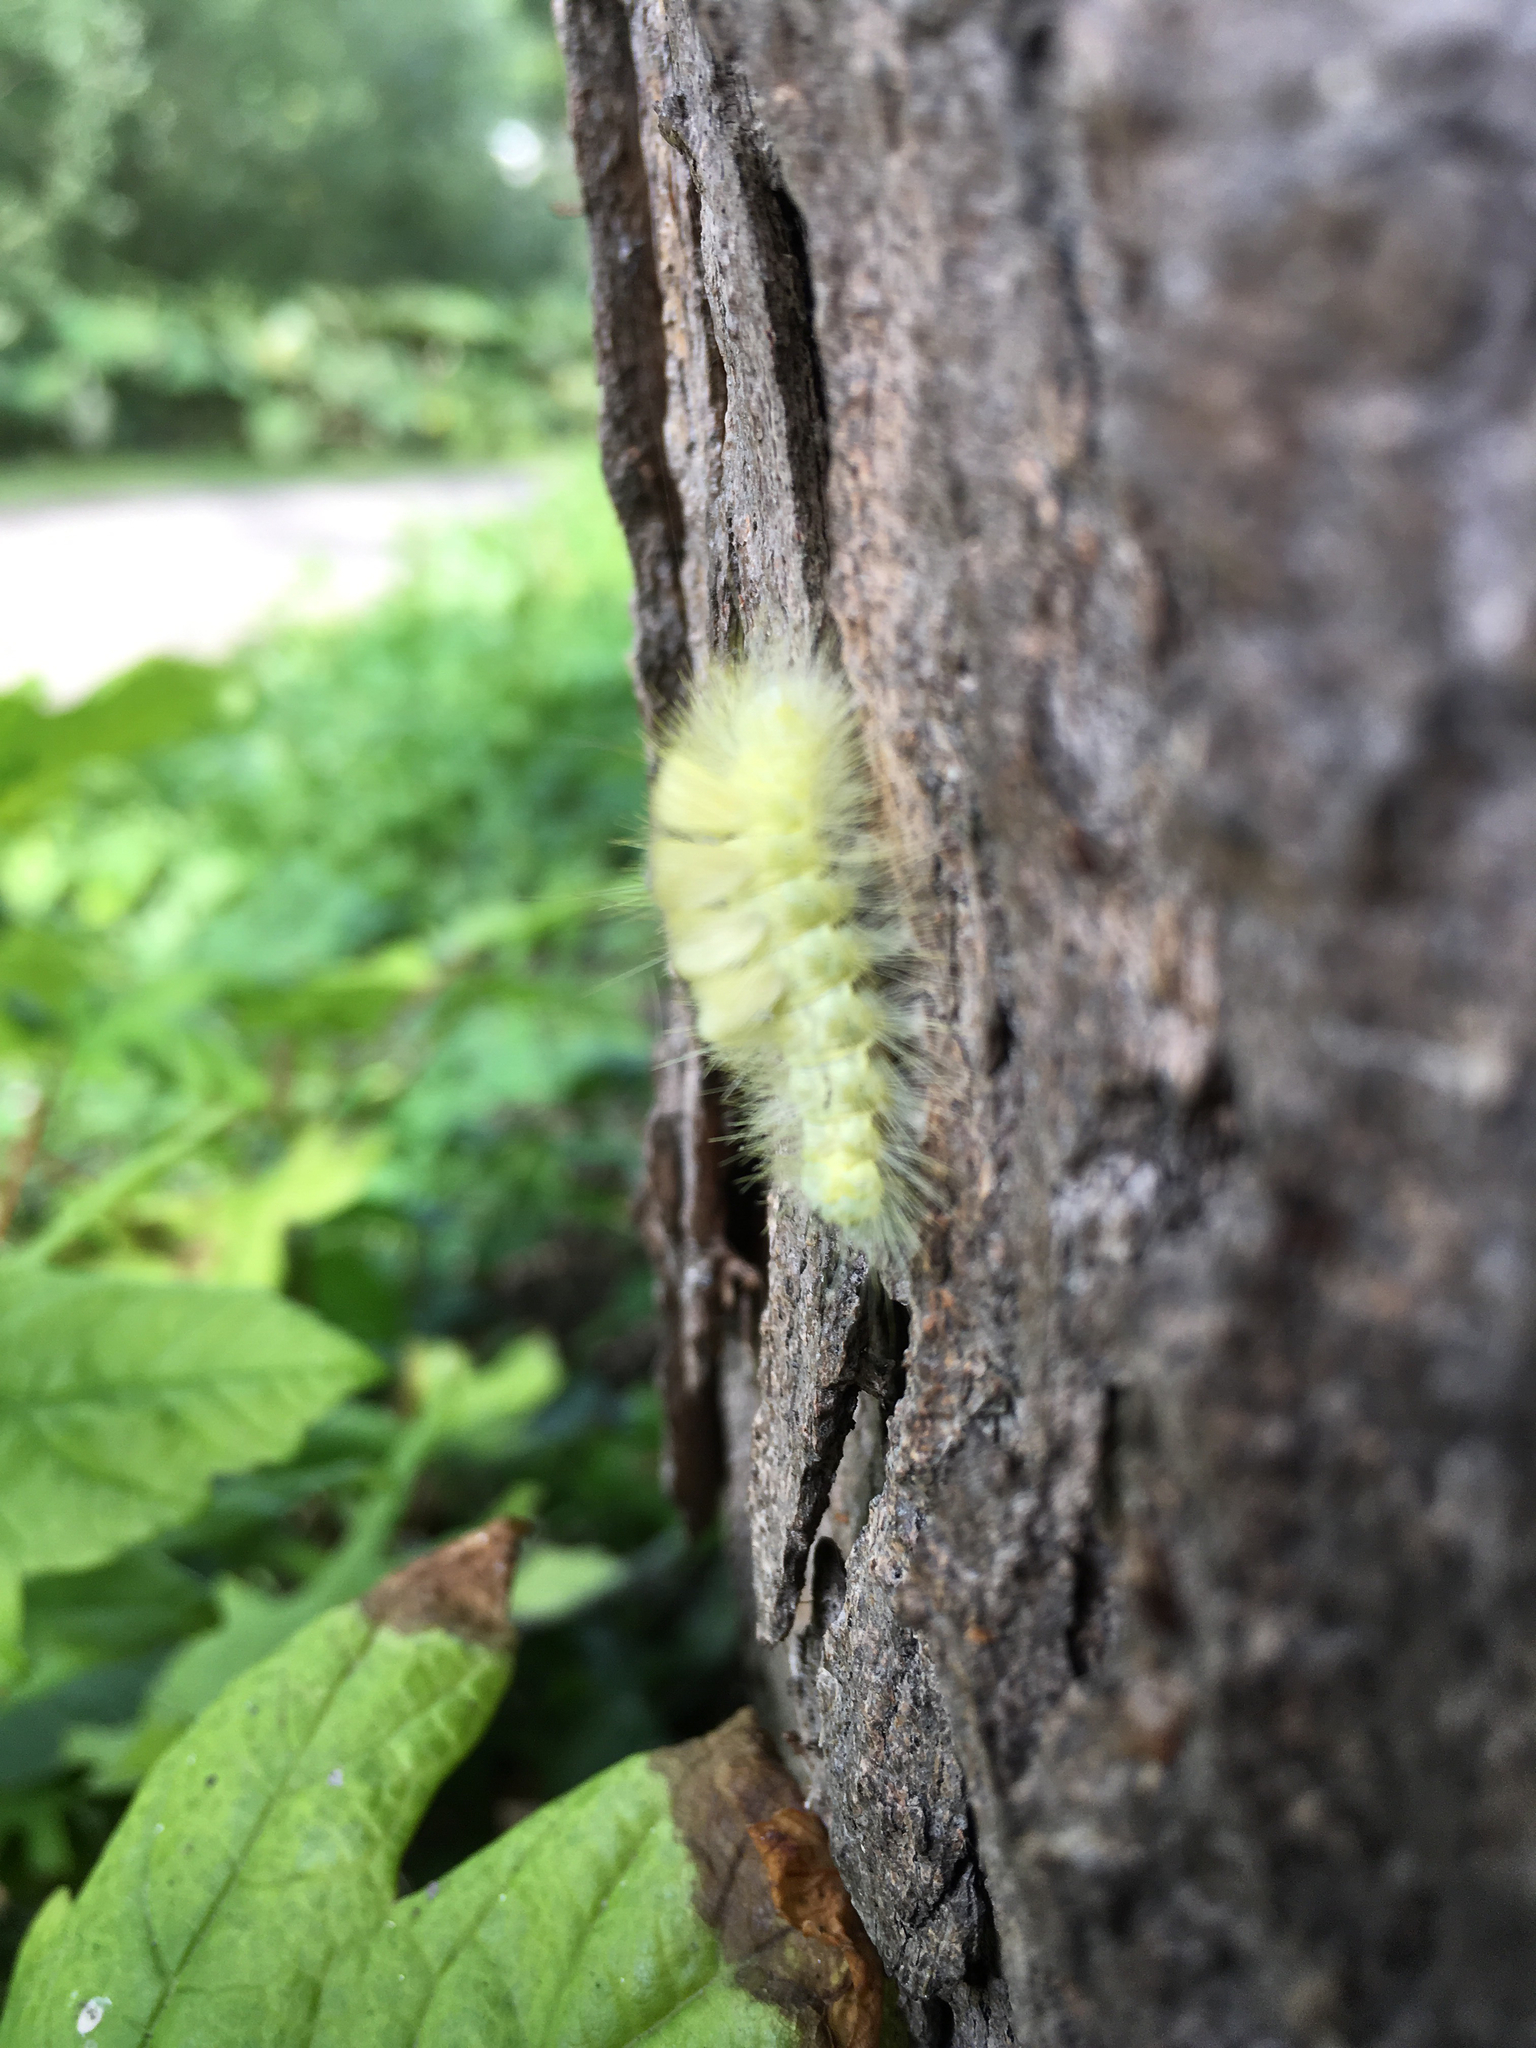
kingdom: Animalia
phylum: Arthropoda
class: Insecta
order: Lepidoptera
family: Erebidae
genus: Calliteara
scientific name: Calliteara pudibunda
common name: Pale tussock
